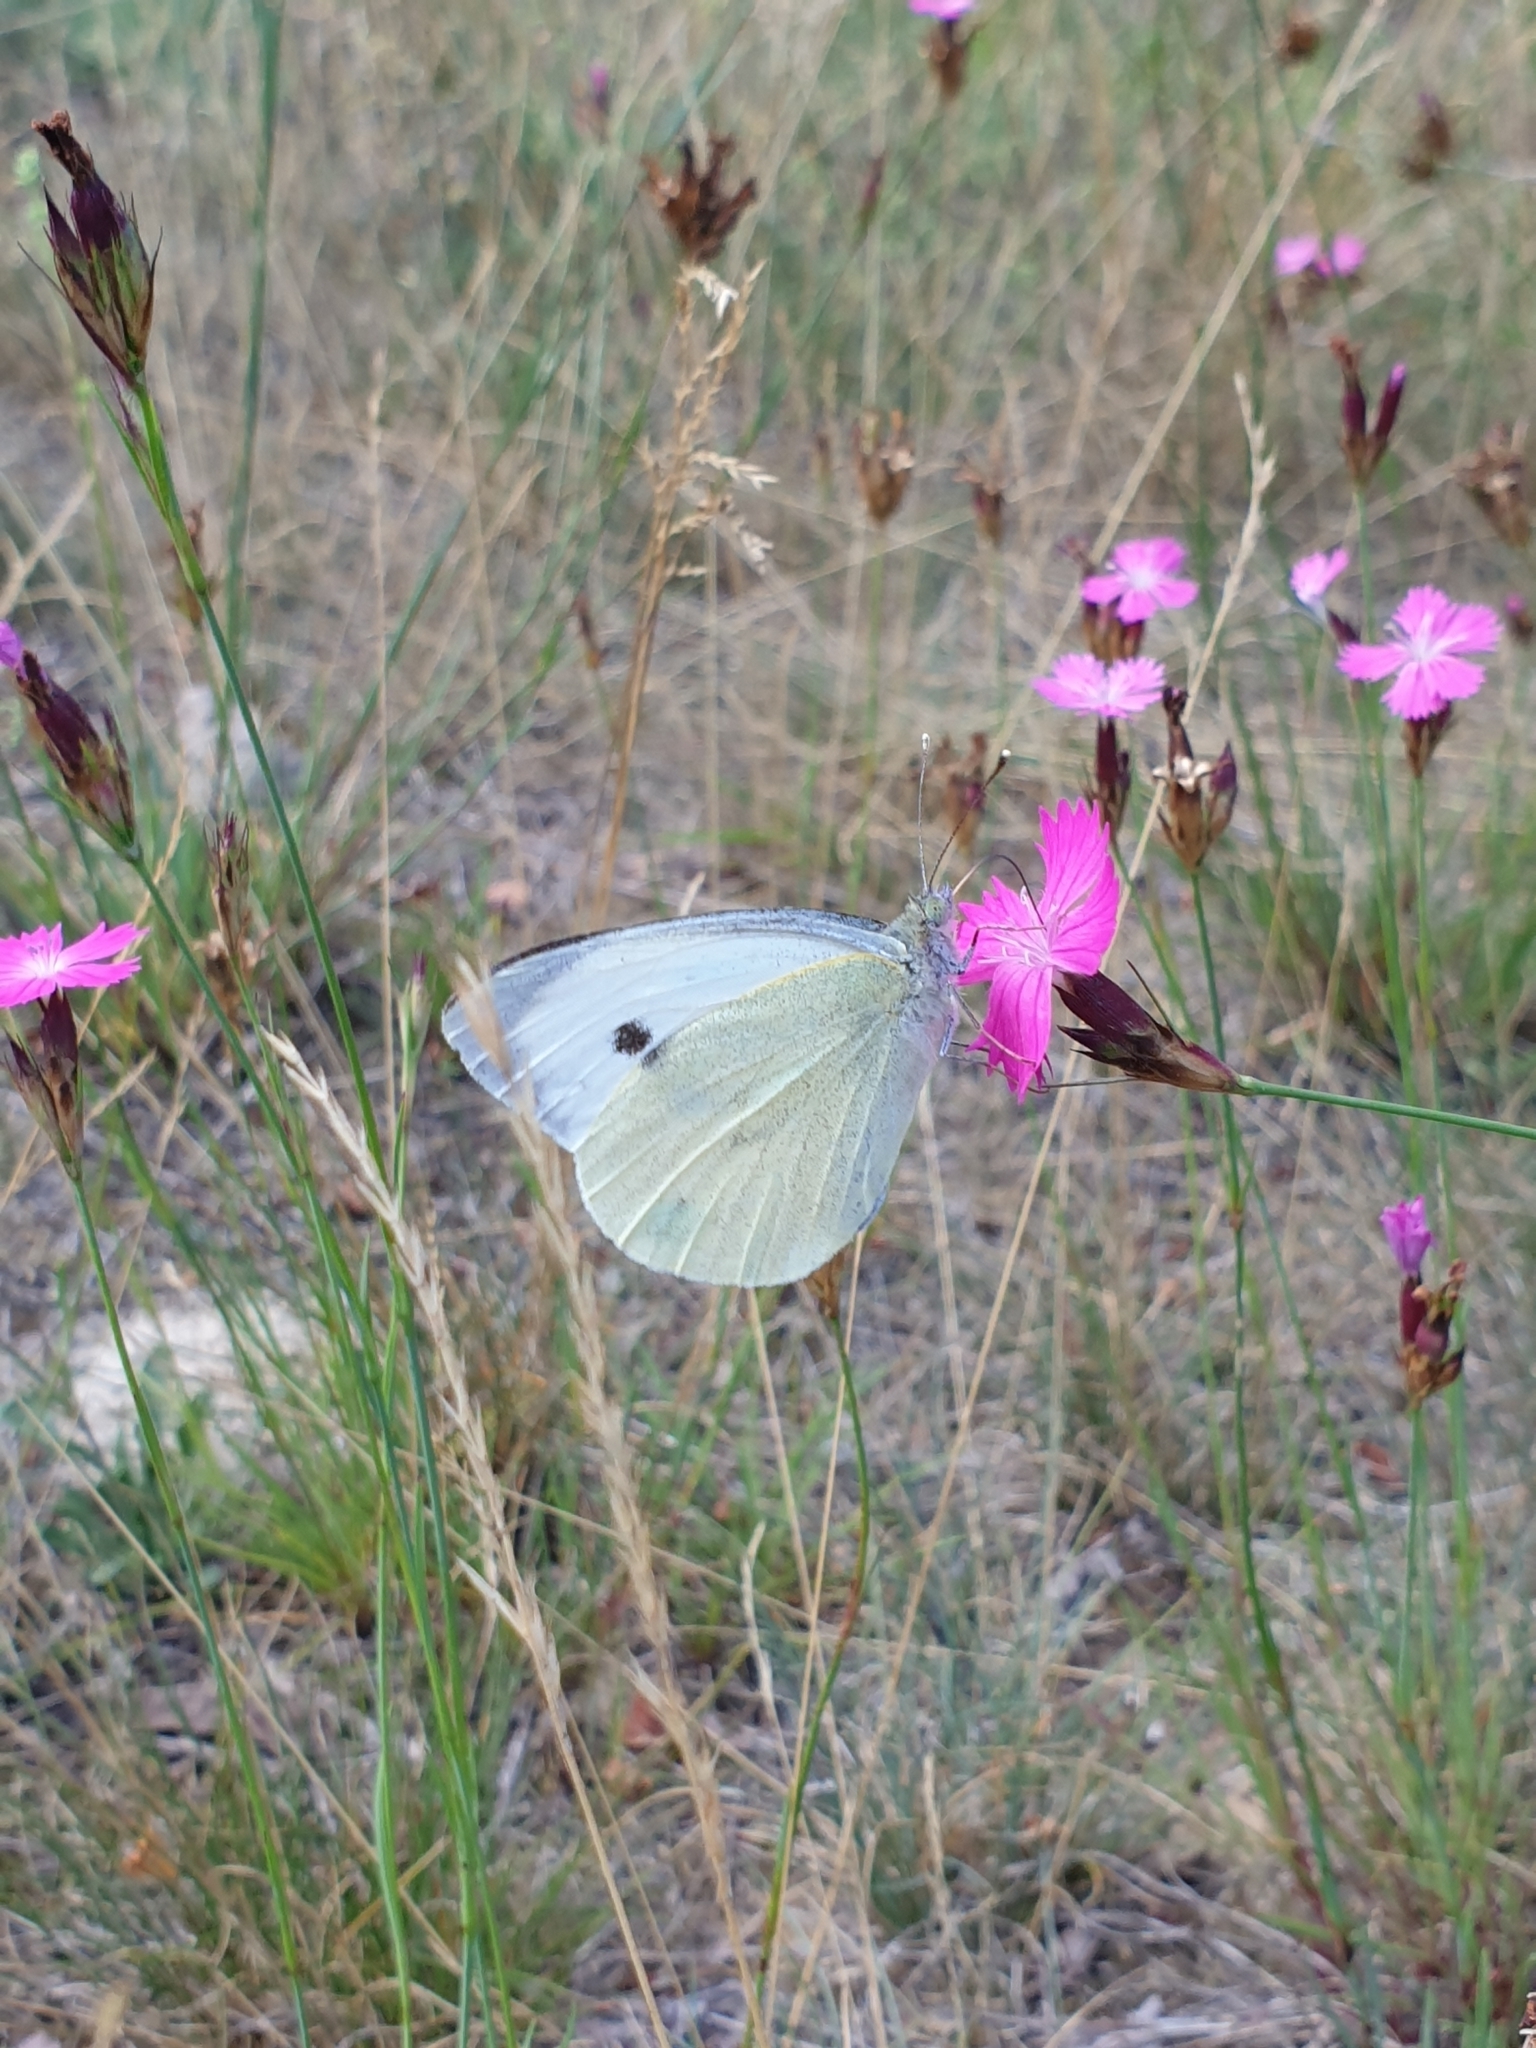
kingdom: Animalia
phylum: Arthropoda
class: Insecta
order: Lepidoptera
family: Pieridae
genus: Pieris
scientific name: Pieris brassicae
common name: Large white
